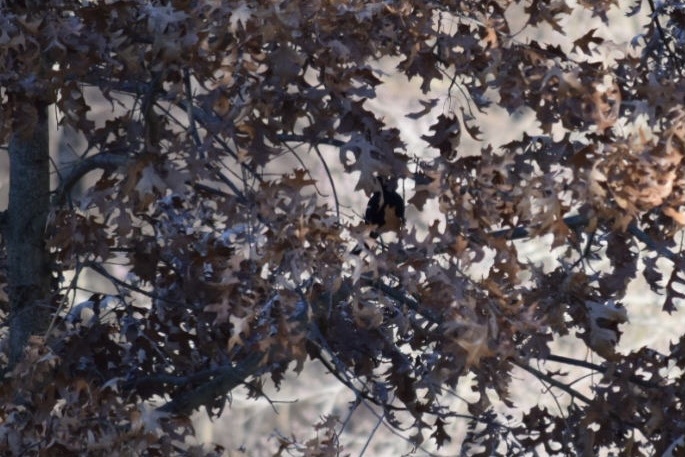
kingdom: Animalia
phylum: Chordata
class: Aves
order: Passeriformes
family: Icteridae
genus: Agelaius
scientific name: Agelaius phoeniceus
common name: Red-winged blackbird
